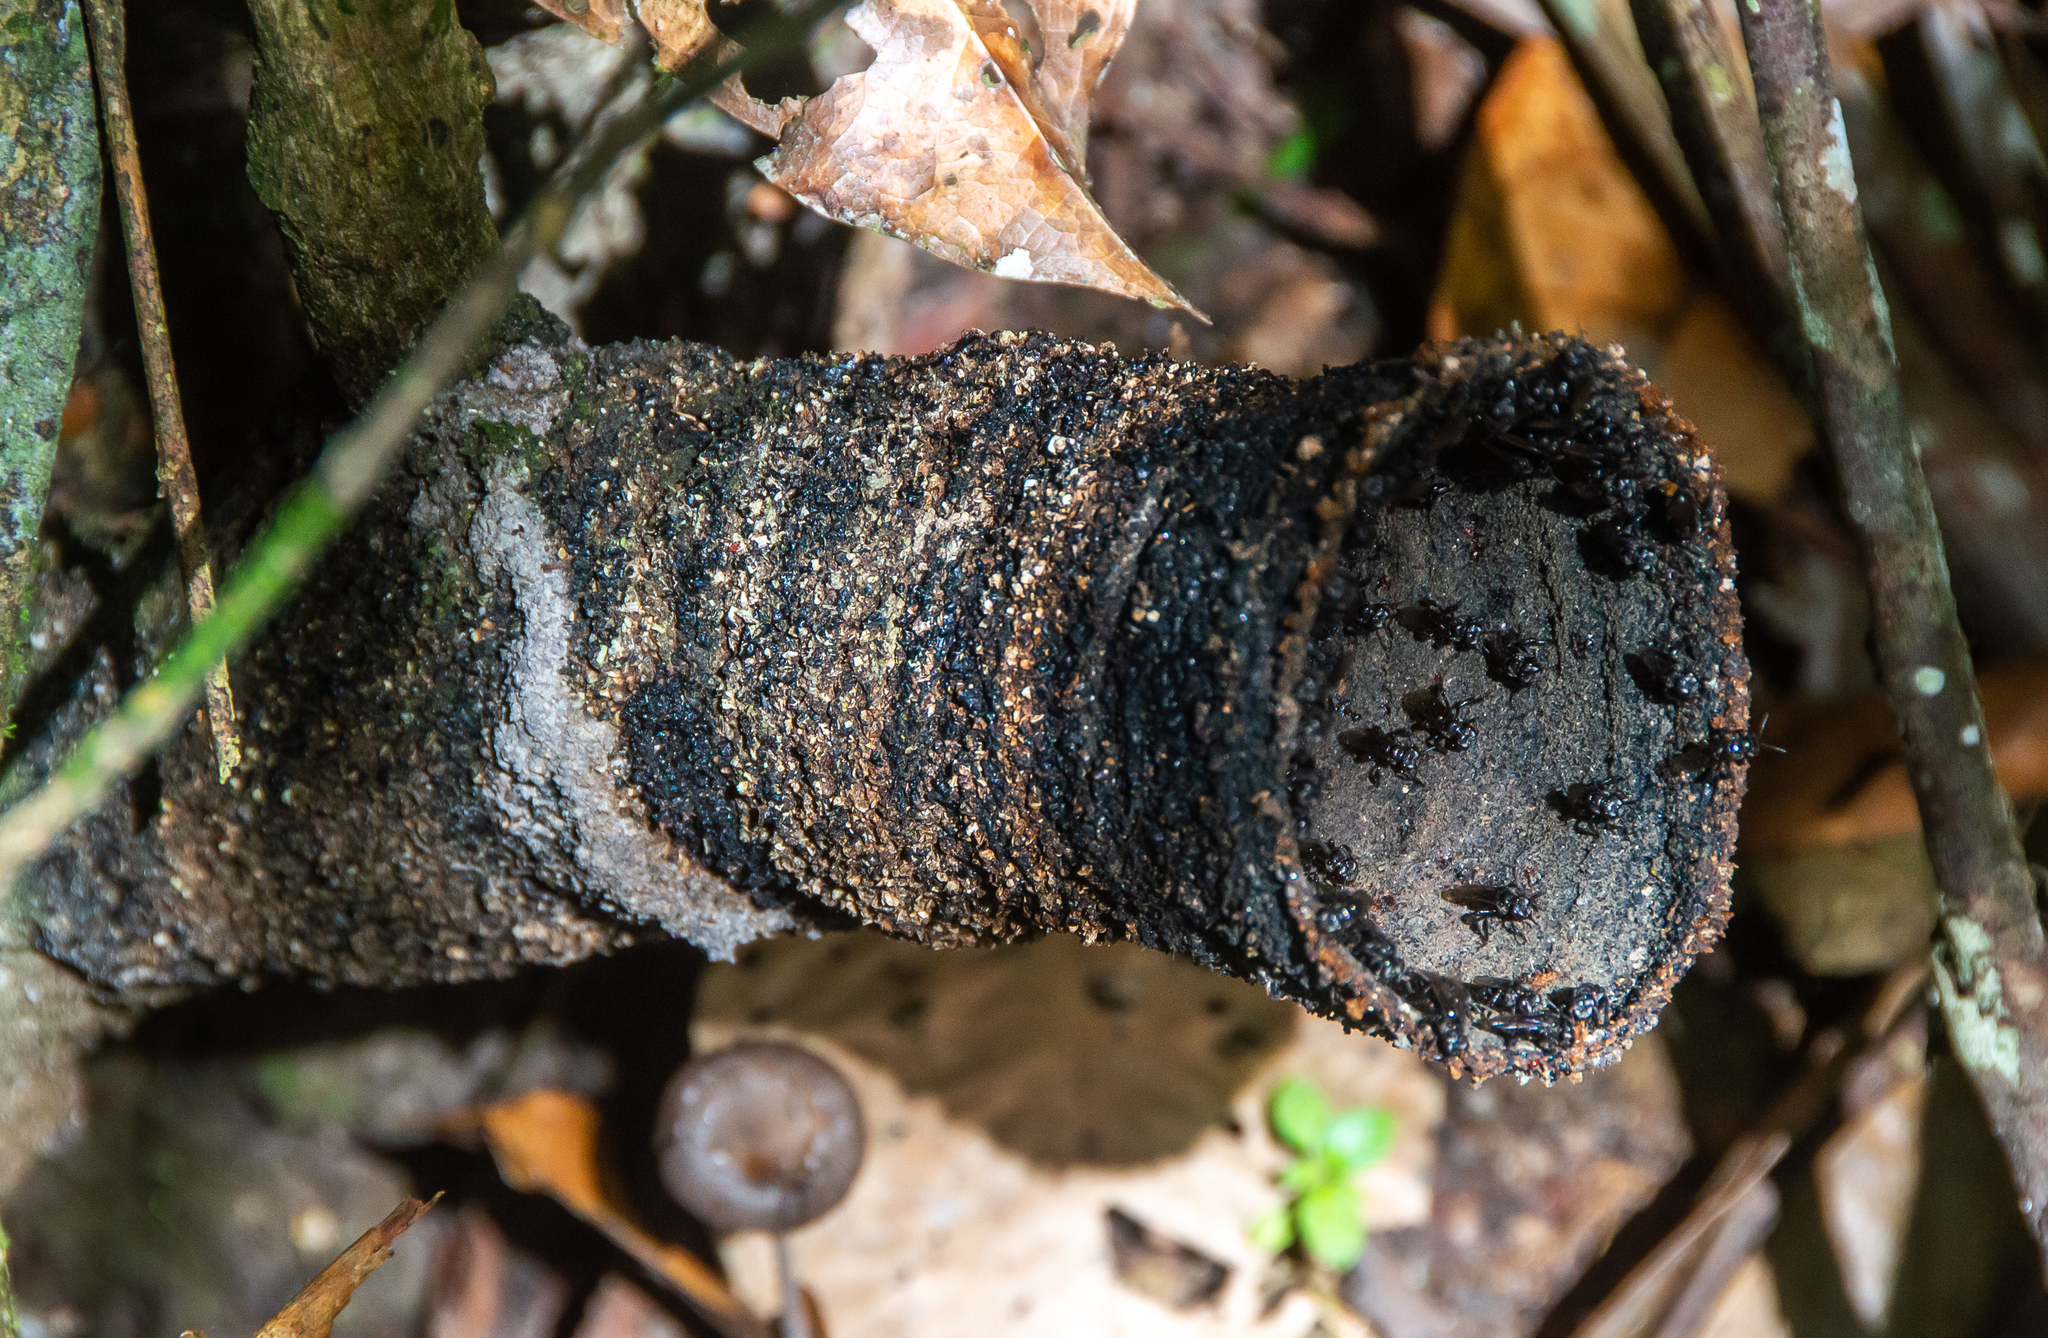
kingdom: Animalia
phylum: Arthropoda
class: Insecta
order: Hymenoptera
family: Apidae
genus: Trigona
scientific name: Trigona recursa
